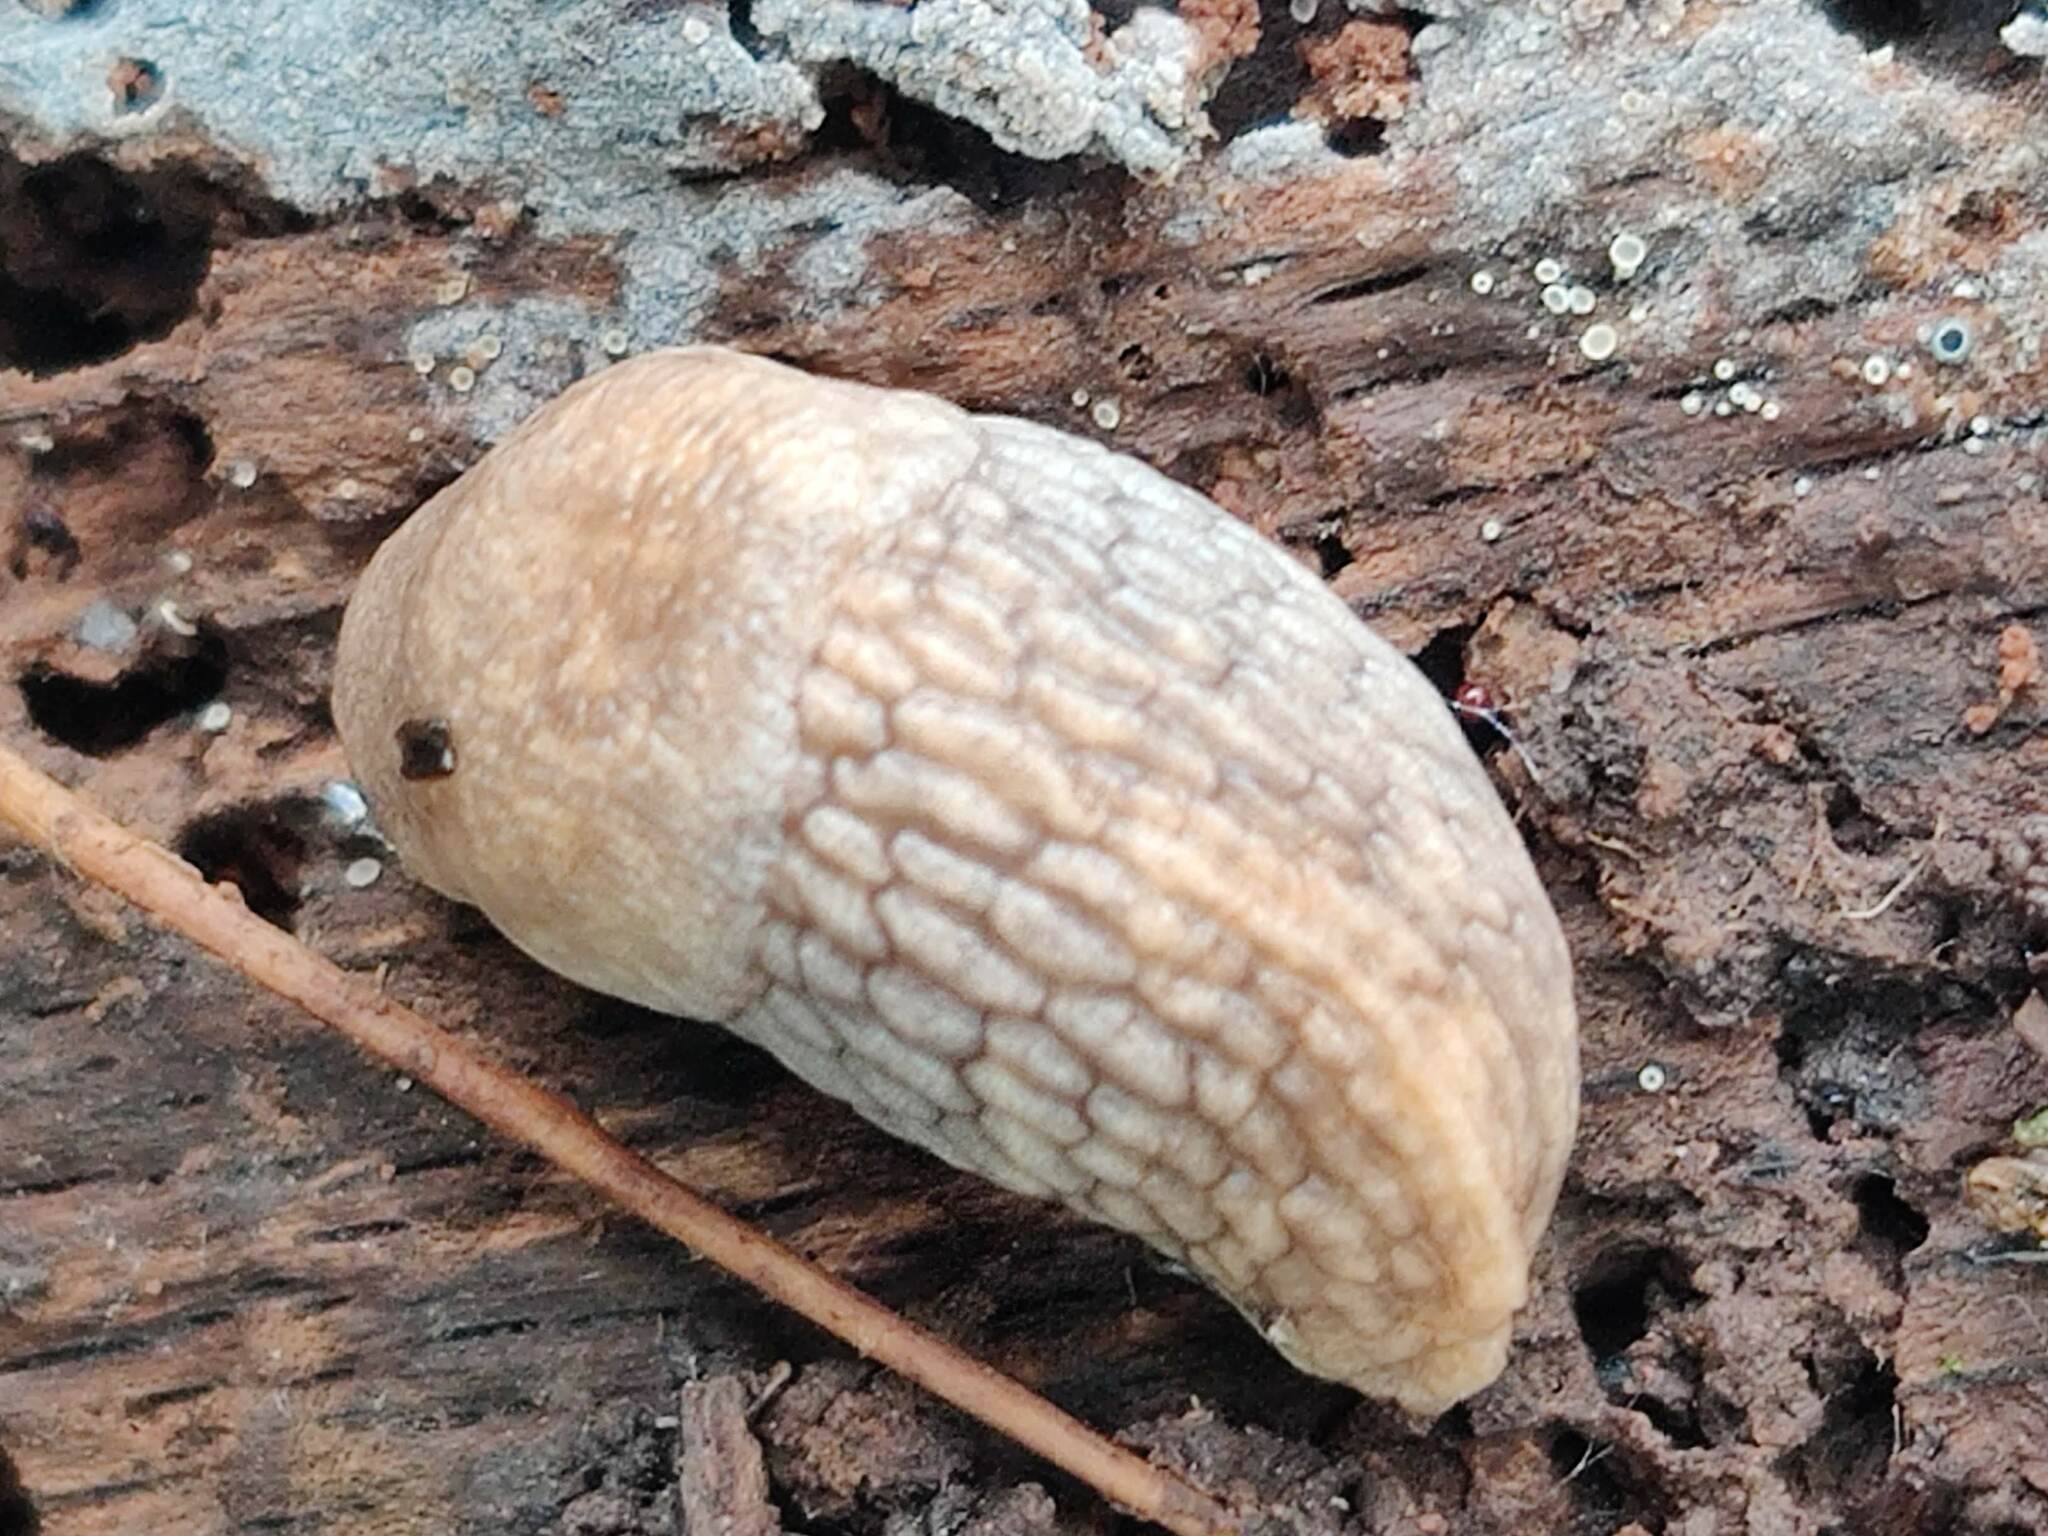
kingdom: Animalia
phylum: Mollusca
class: Gastropoda
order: Stylommatophora
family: Agriolimacidae
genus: Deroceras
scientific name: Deroceras reticulatum
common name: Gray field slug
